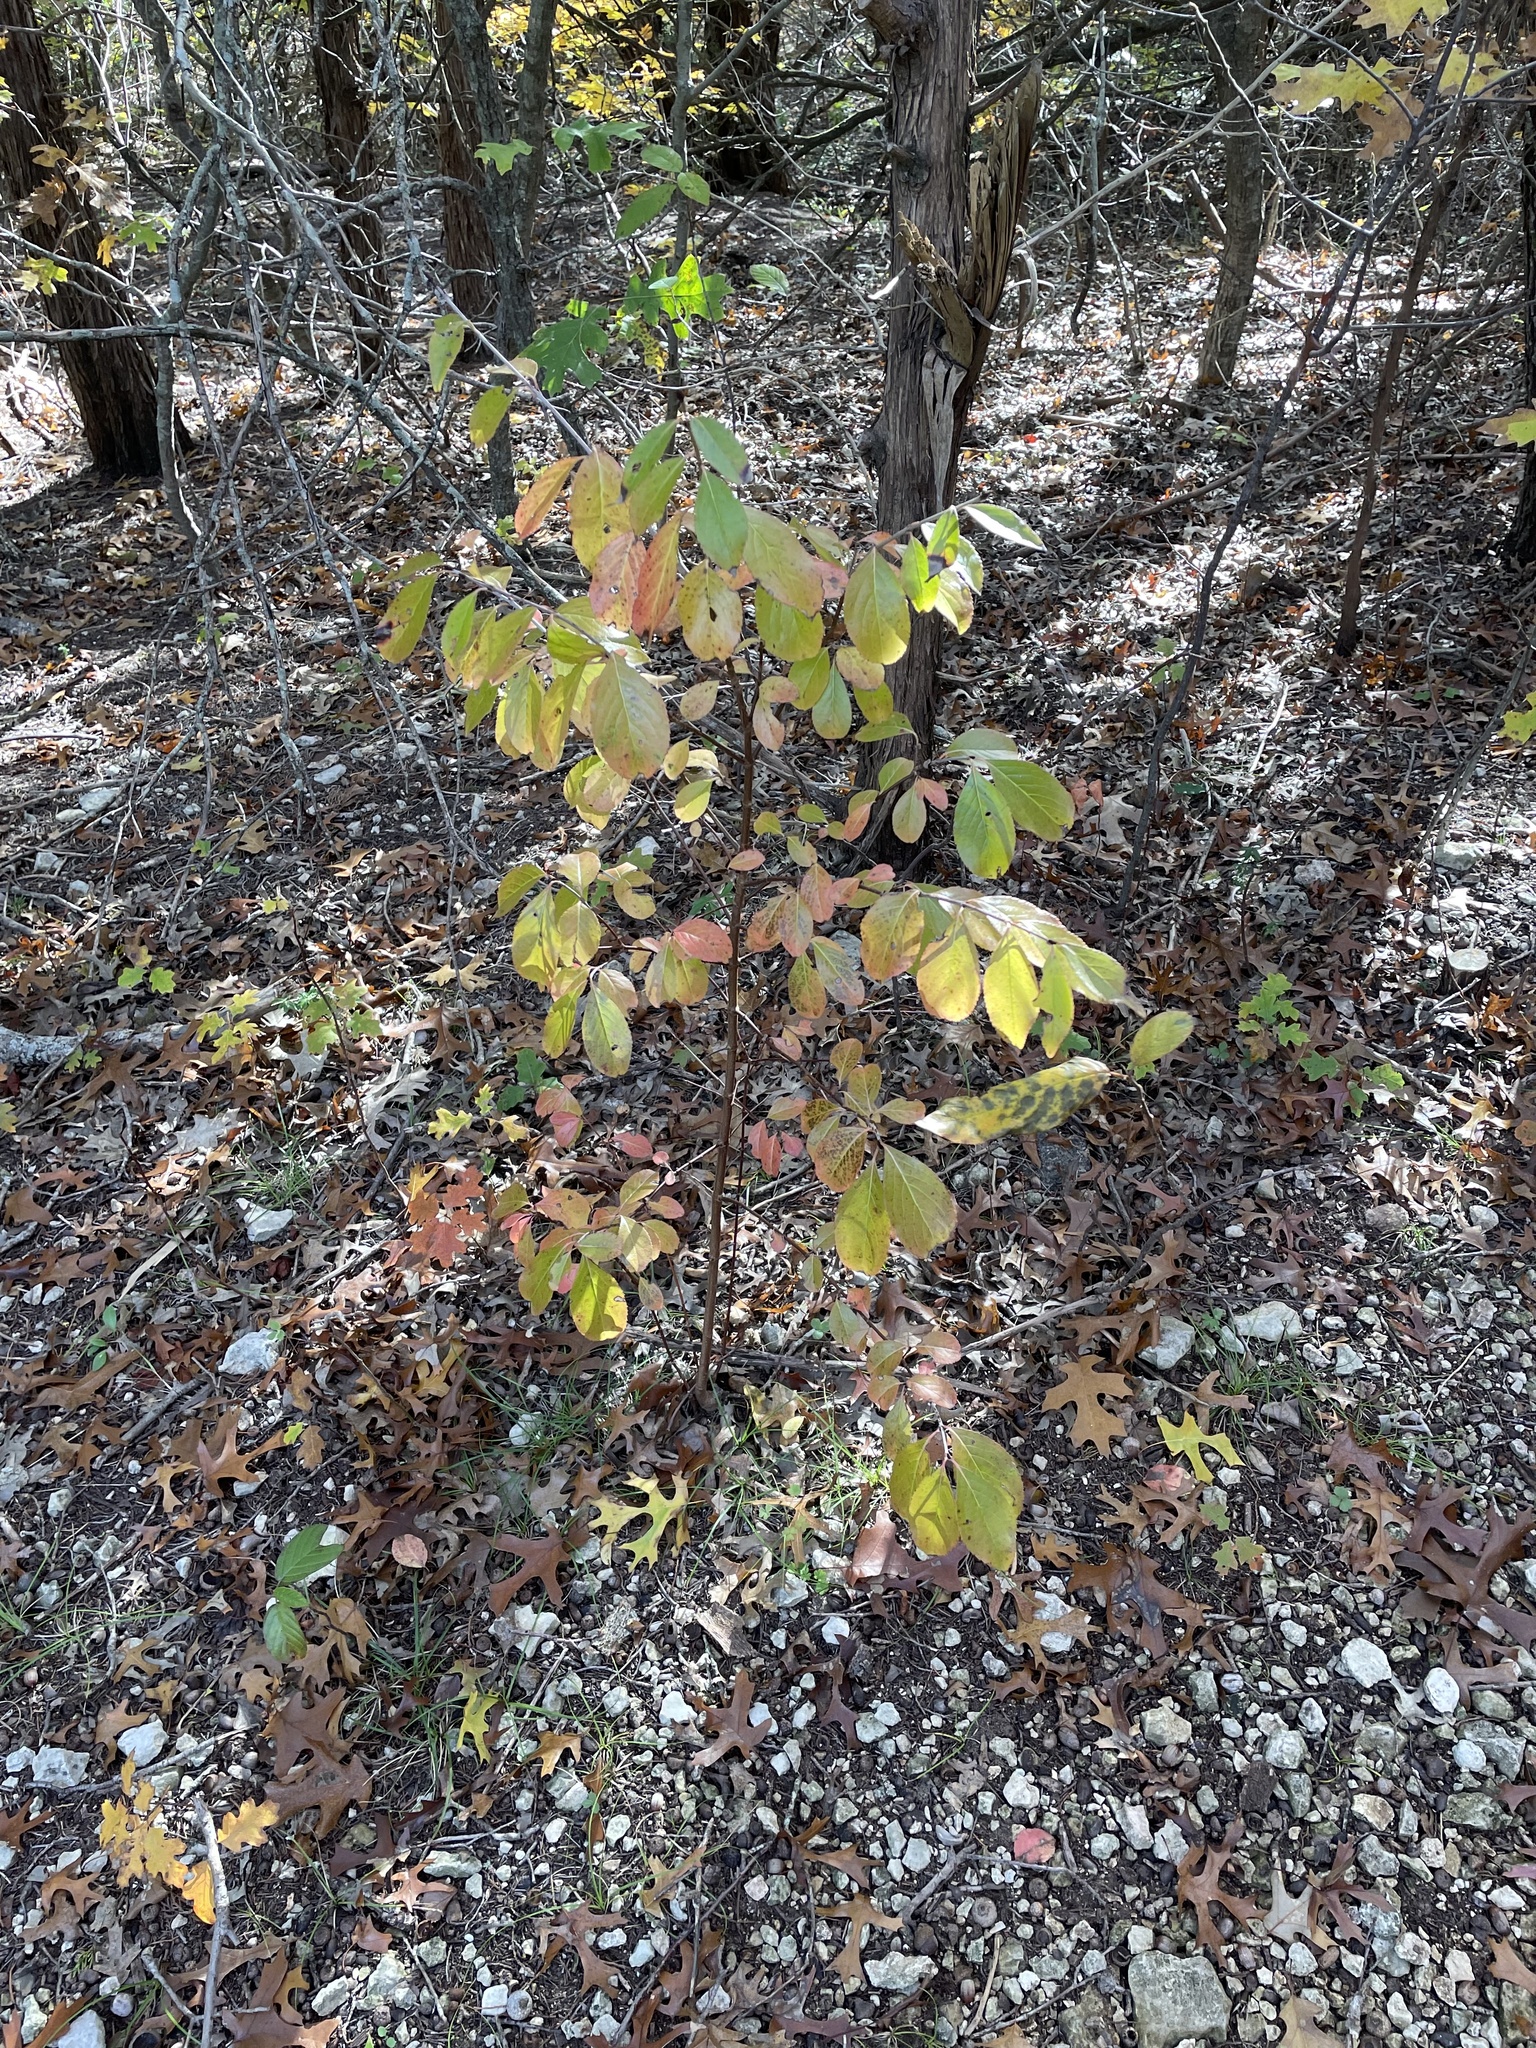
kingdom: Plantae
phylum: Tracheophyta
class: Magnoliopsida
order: Dipsacales
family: Viburnaceae
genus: Viburnum
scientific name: Viburnum rufidulum
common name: Blue haw
